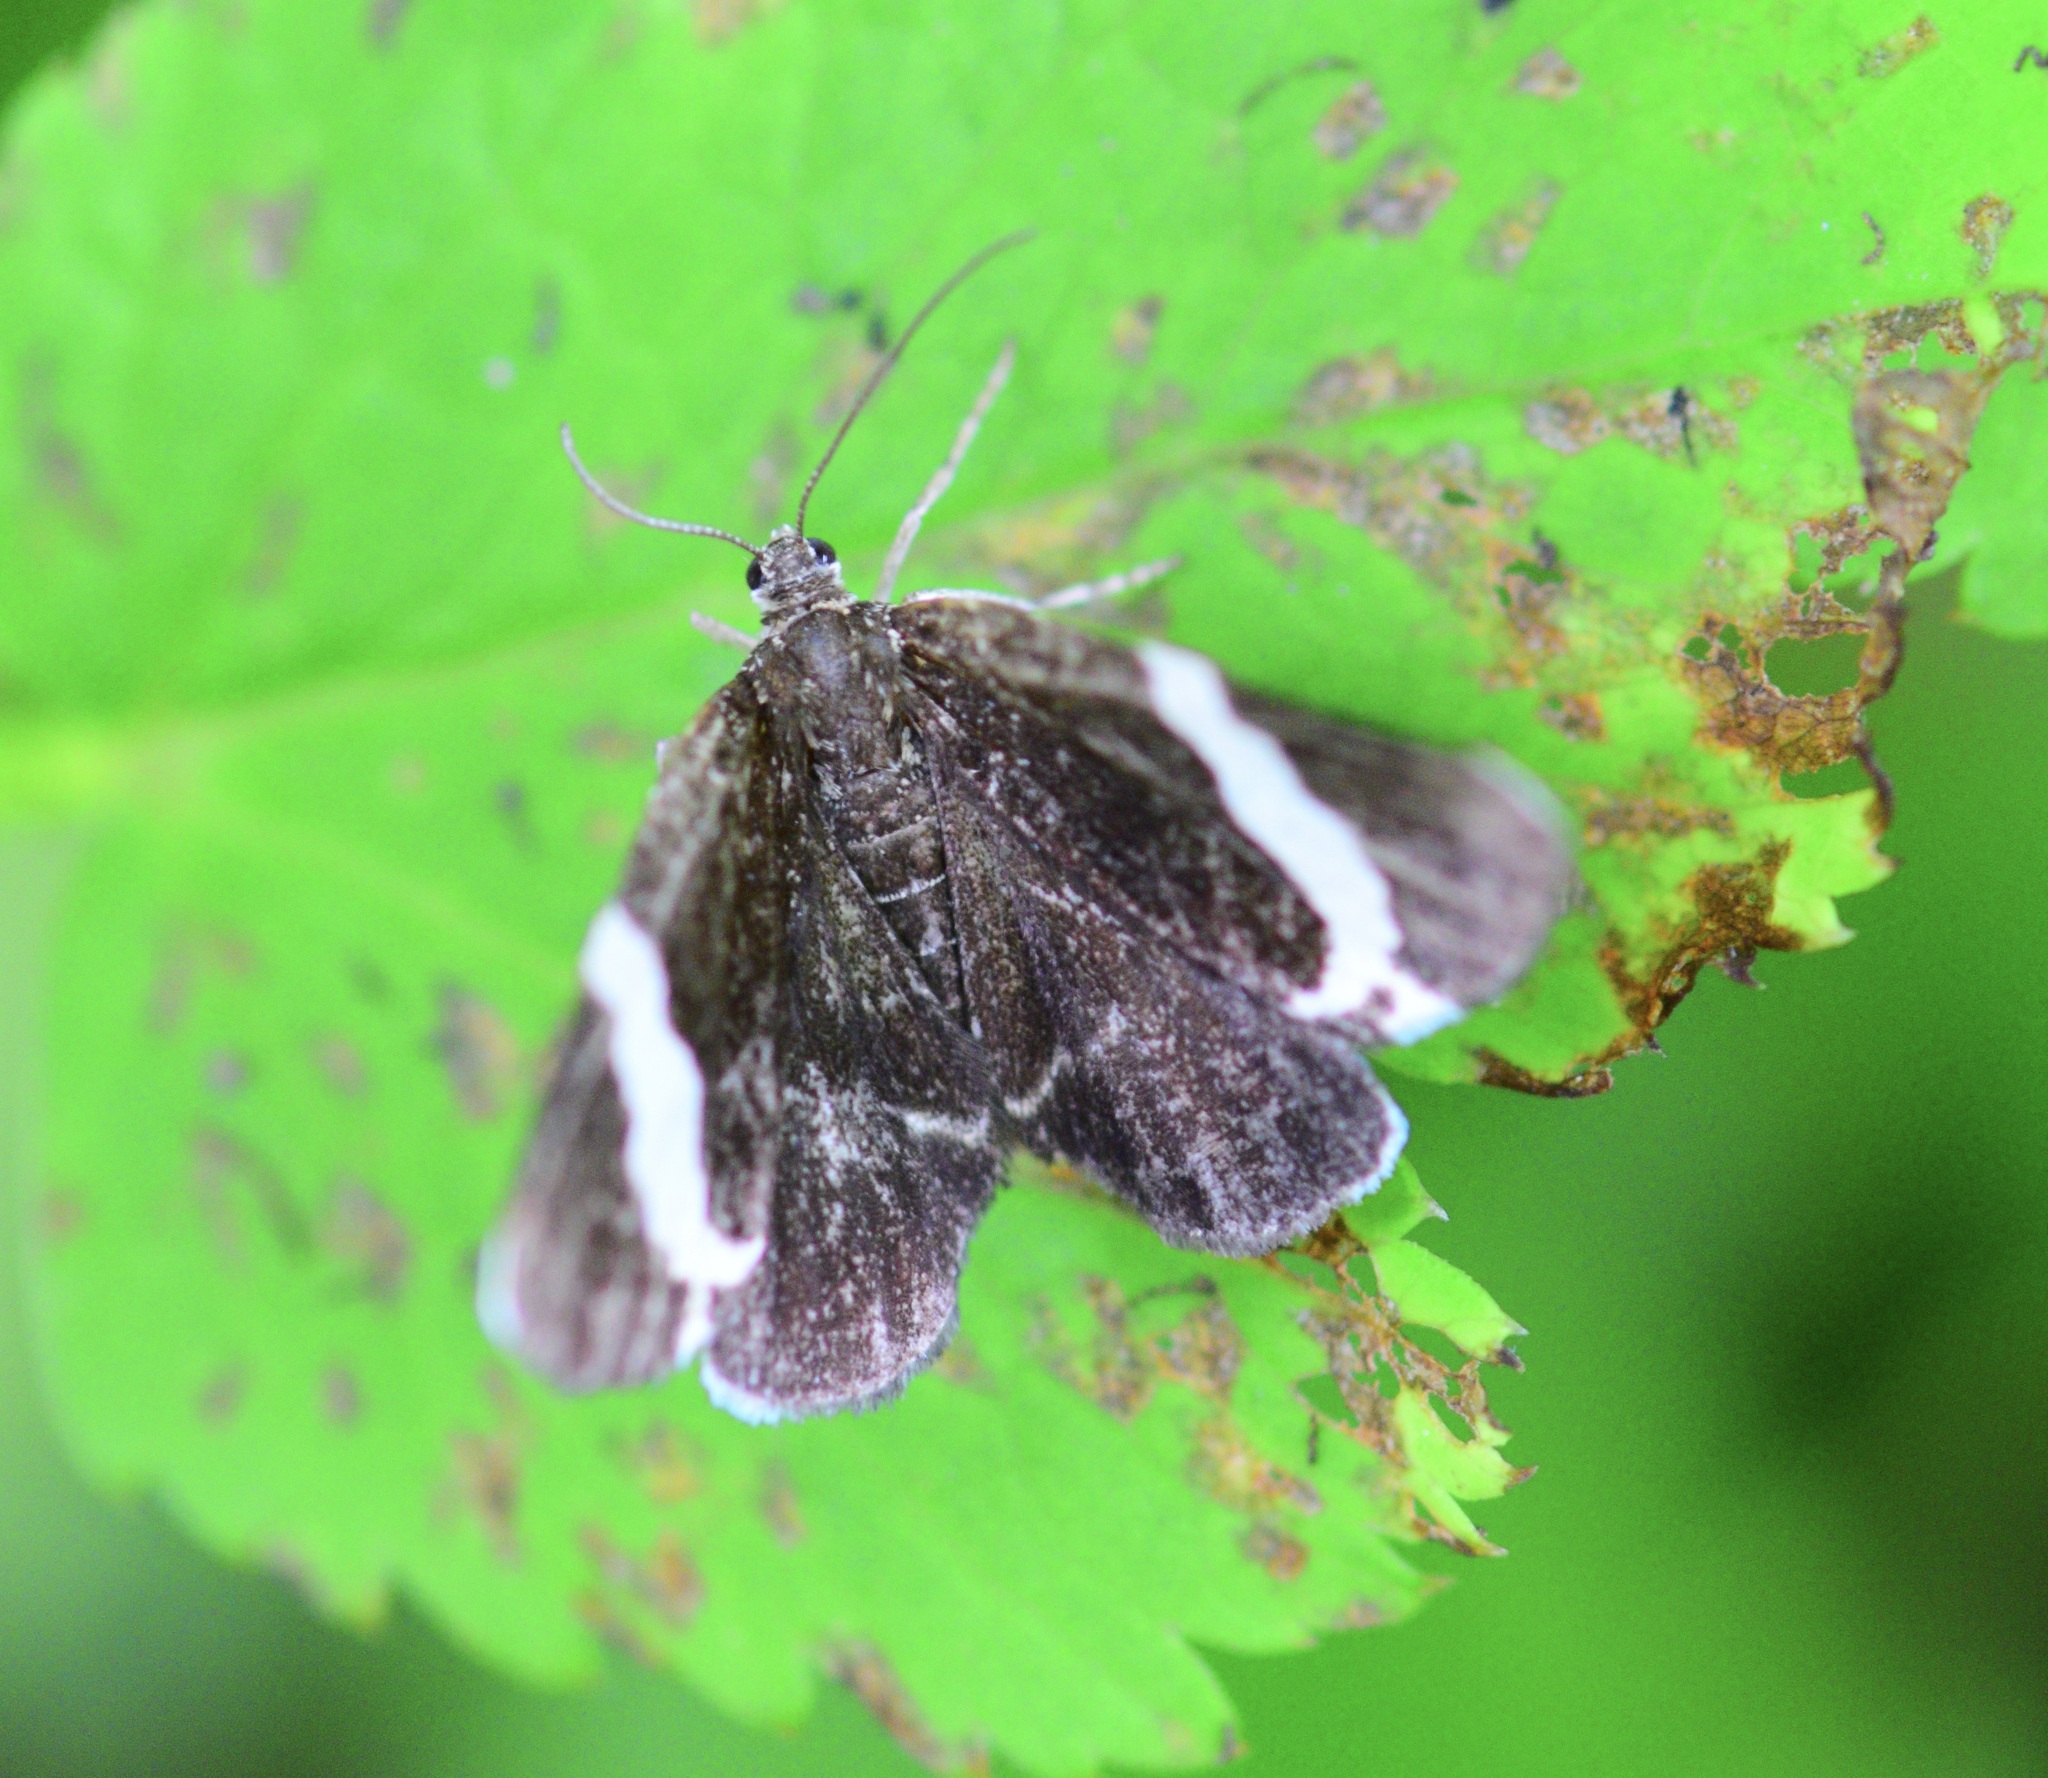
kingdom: Animalia
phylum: Arthropoda
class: Insecta
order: Lepidoptera
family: Geometridae
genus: Trichodezia
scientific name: Trichodezia albovittata
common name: White striped black
